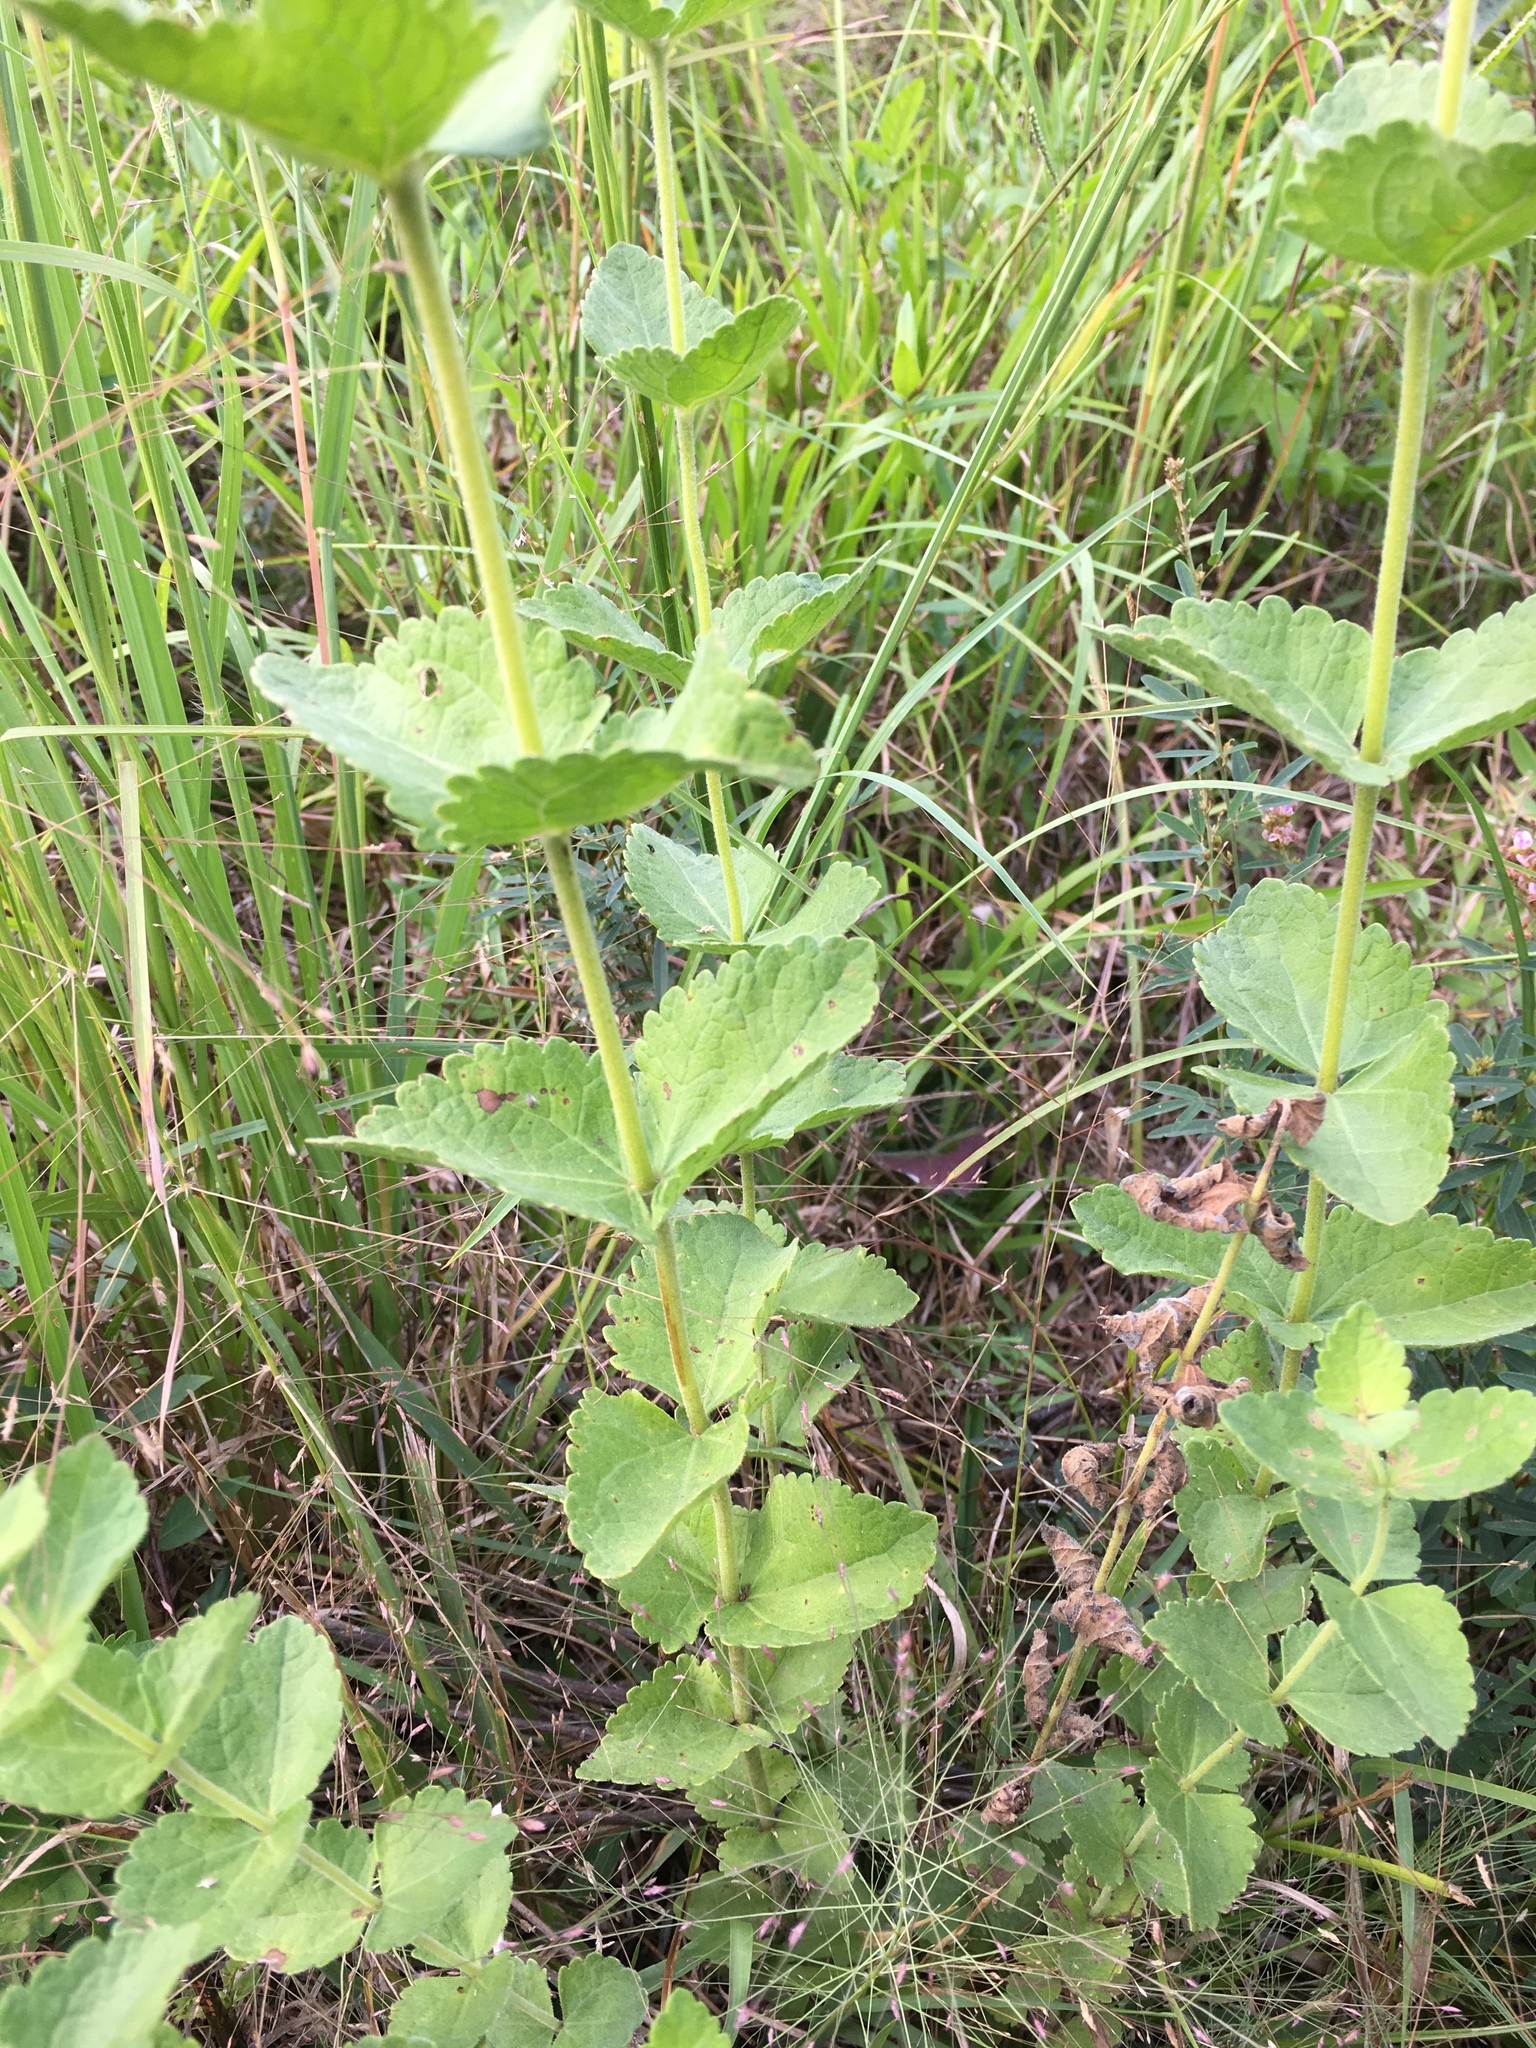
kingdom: Plantae
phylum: Tracheophyta
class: Magnoliopsida
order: Asterales
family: Asteraceae
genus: Eupatorium
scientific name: Eupatorium rotundifolium
